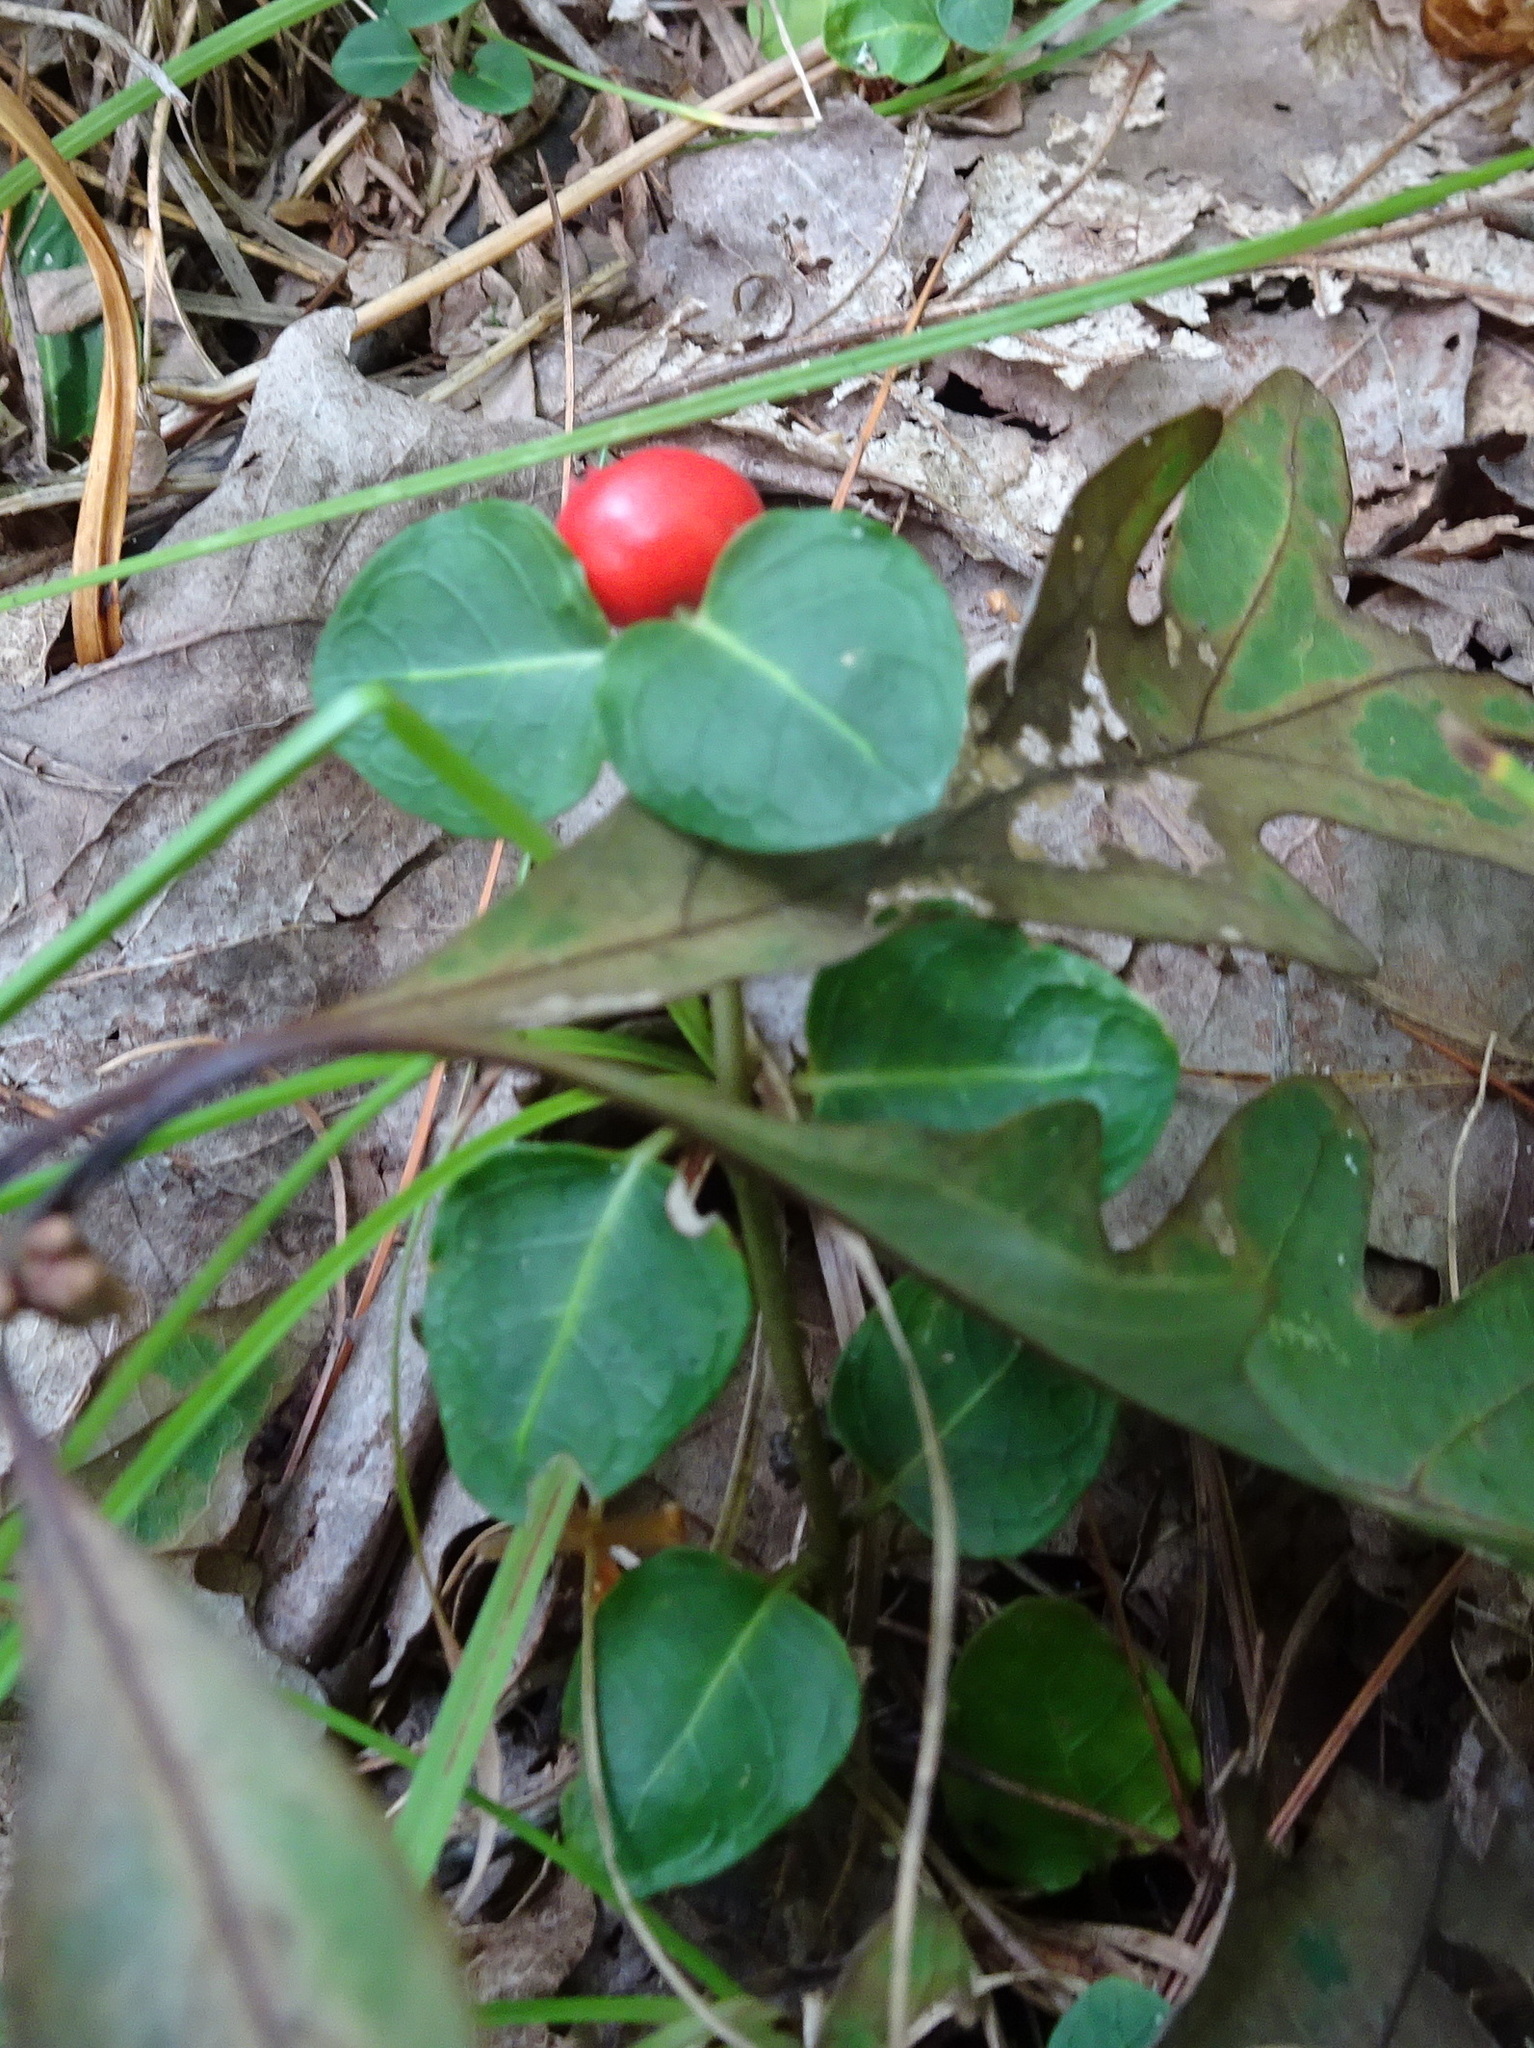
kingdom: Plantae
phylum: Tracheophyta
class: Magnoliopsida
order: Gentianales
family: Rubiaceae
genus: Mitchella
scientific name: Mitchella repens
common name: Partridge-berry
